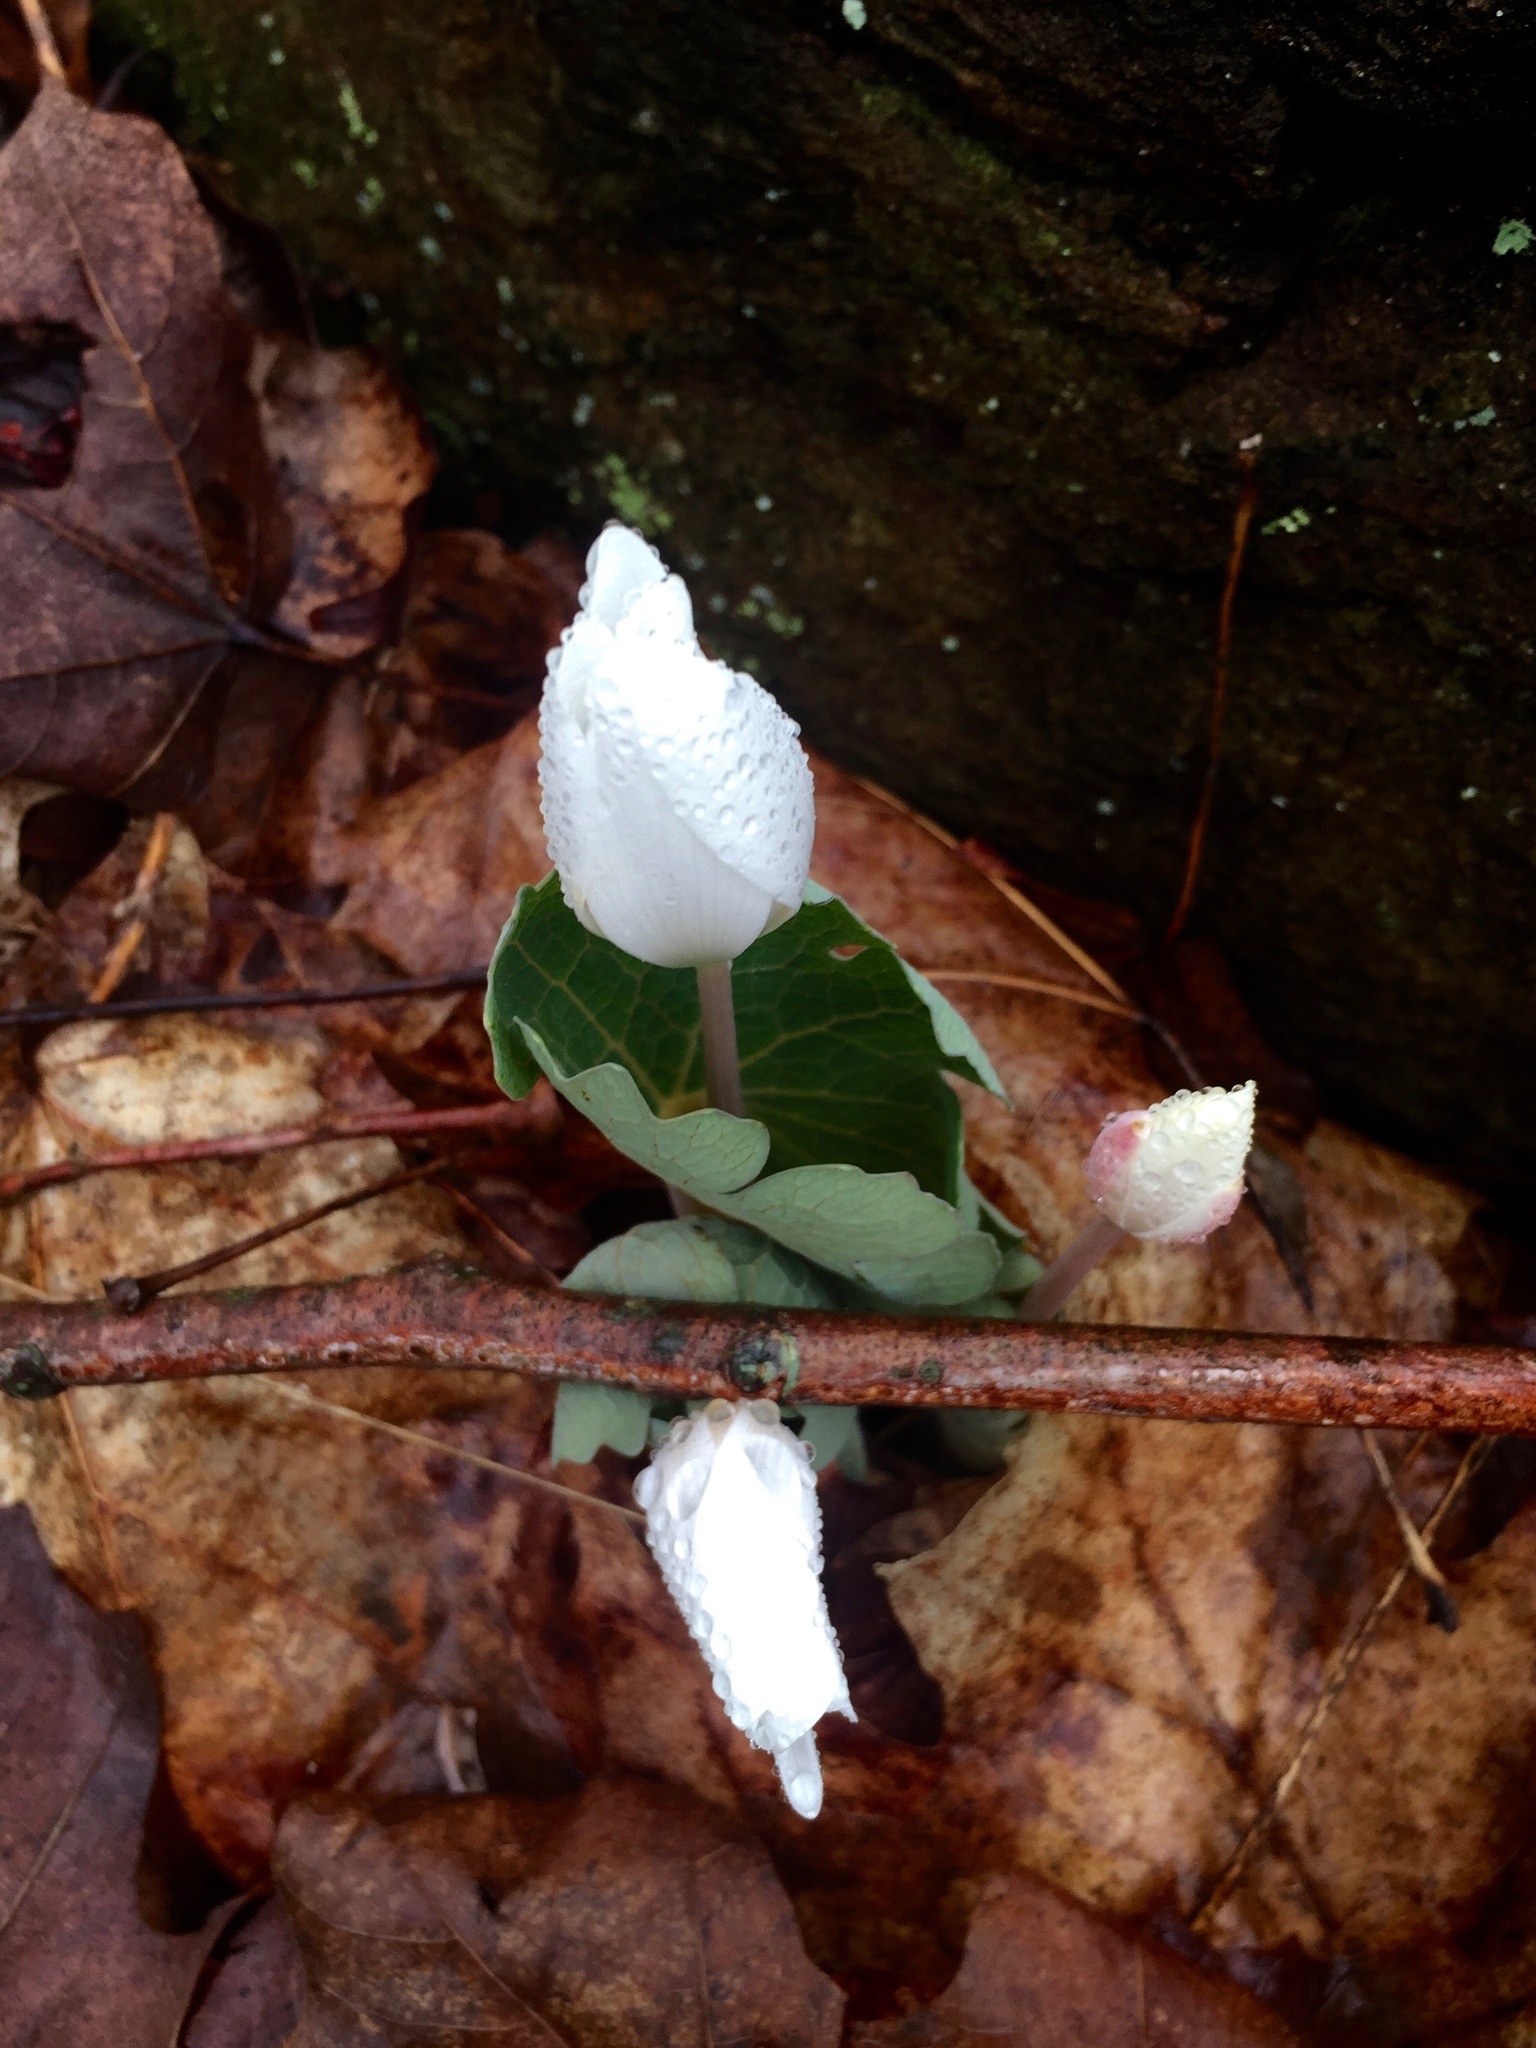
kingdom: Plantae
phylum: Tracheophyta
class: Magnoliopsida
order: Ranunculales
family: Papaveraceae
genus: Sanguinaria
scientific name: Sanguinaria canadensis
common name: Bloodroot
